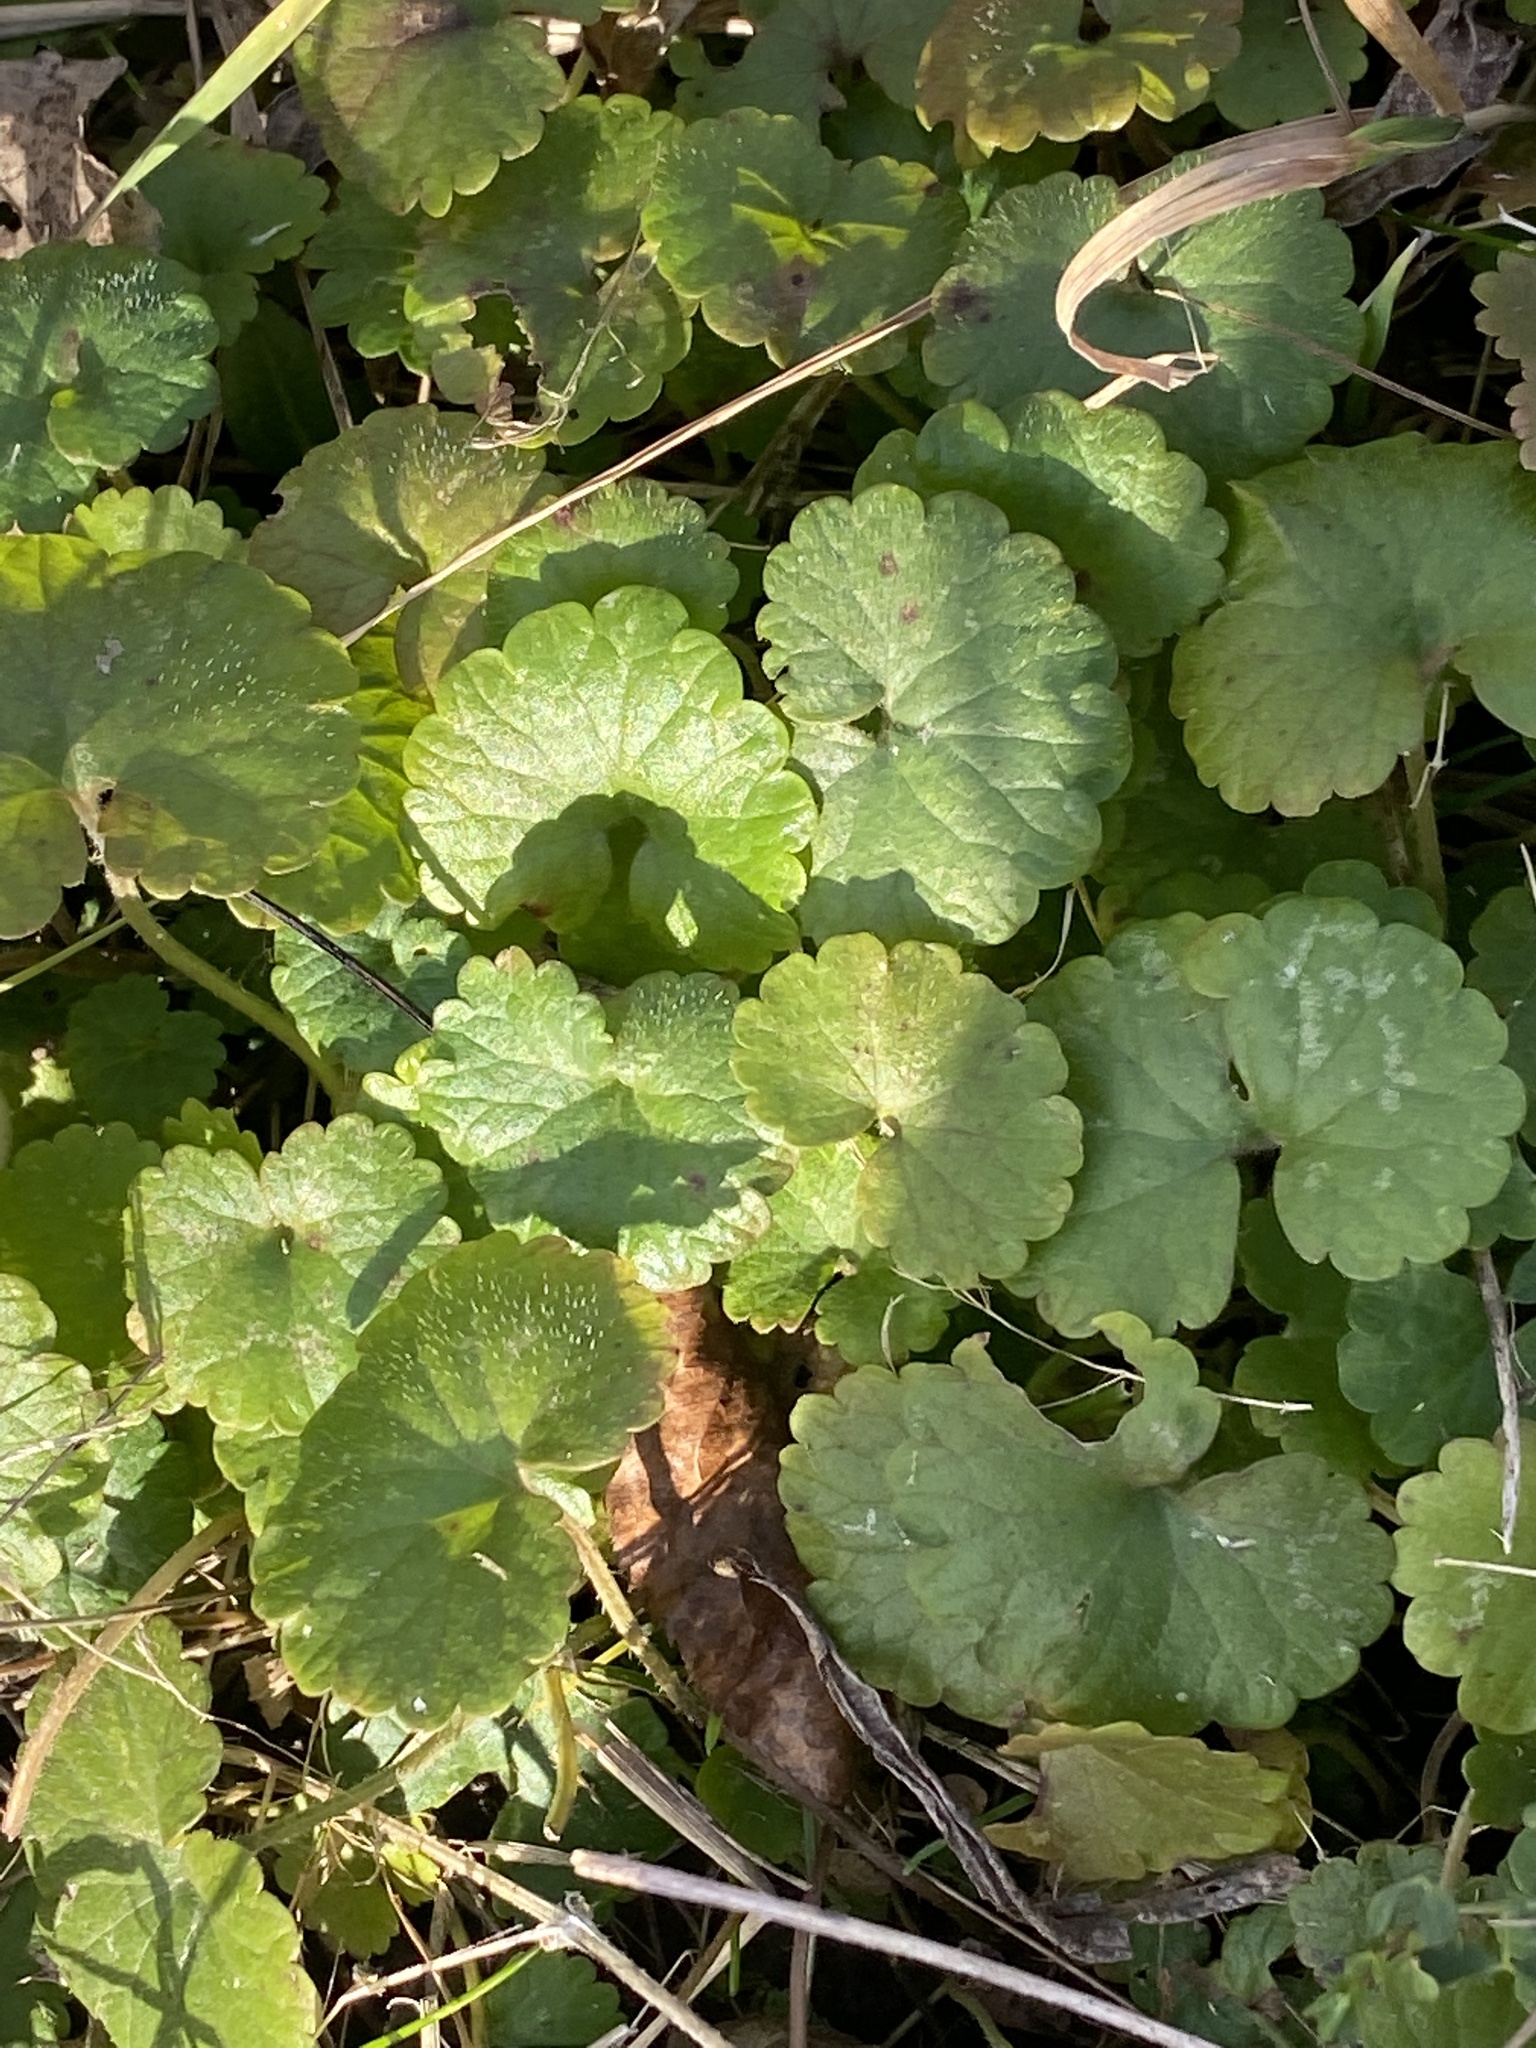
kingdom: Plantae
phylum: Tracheophyta
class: Magnoliopsida
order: Lamiales
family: Lamiaceae
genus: Glechoma
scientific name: Glechoma hederacea
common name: Ground ivy
